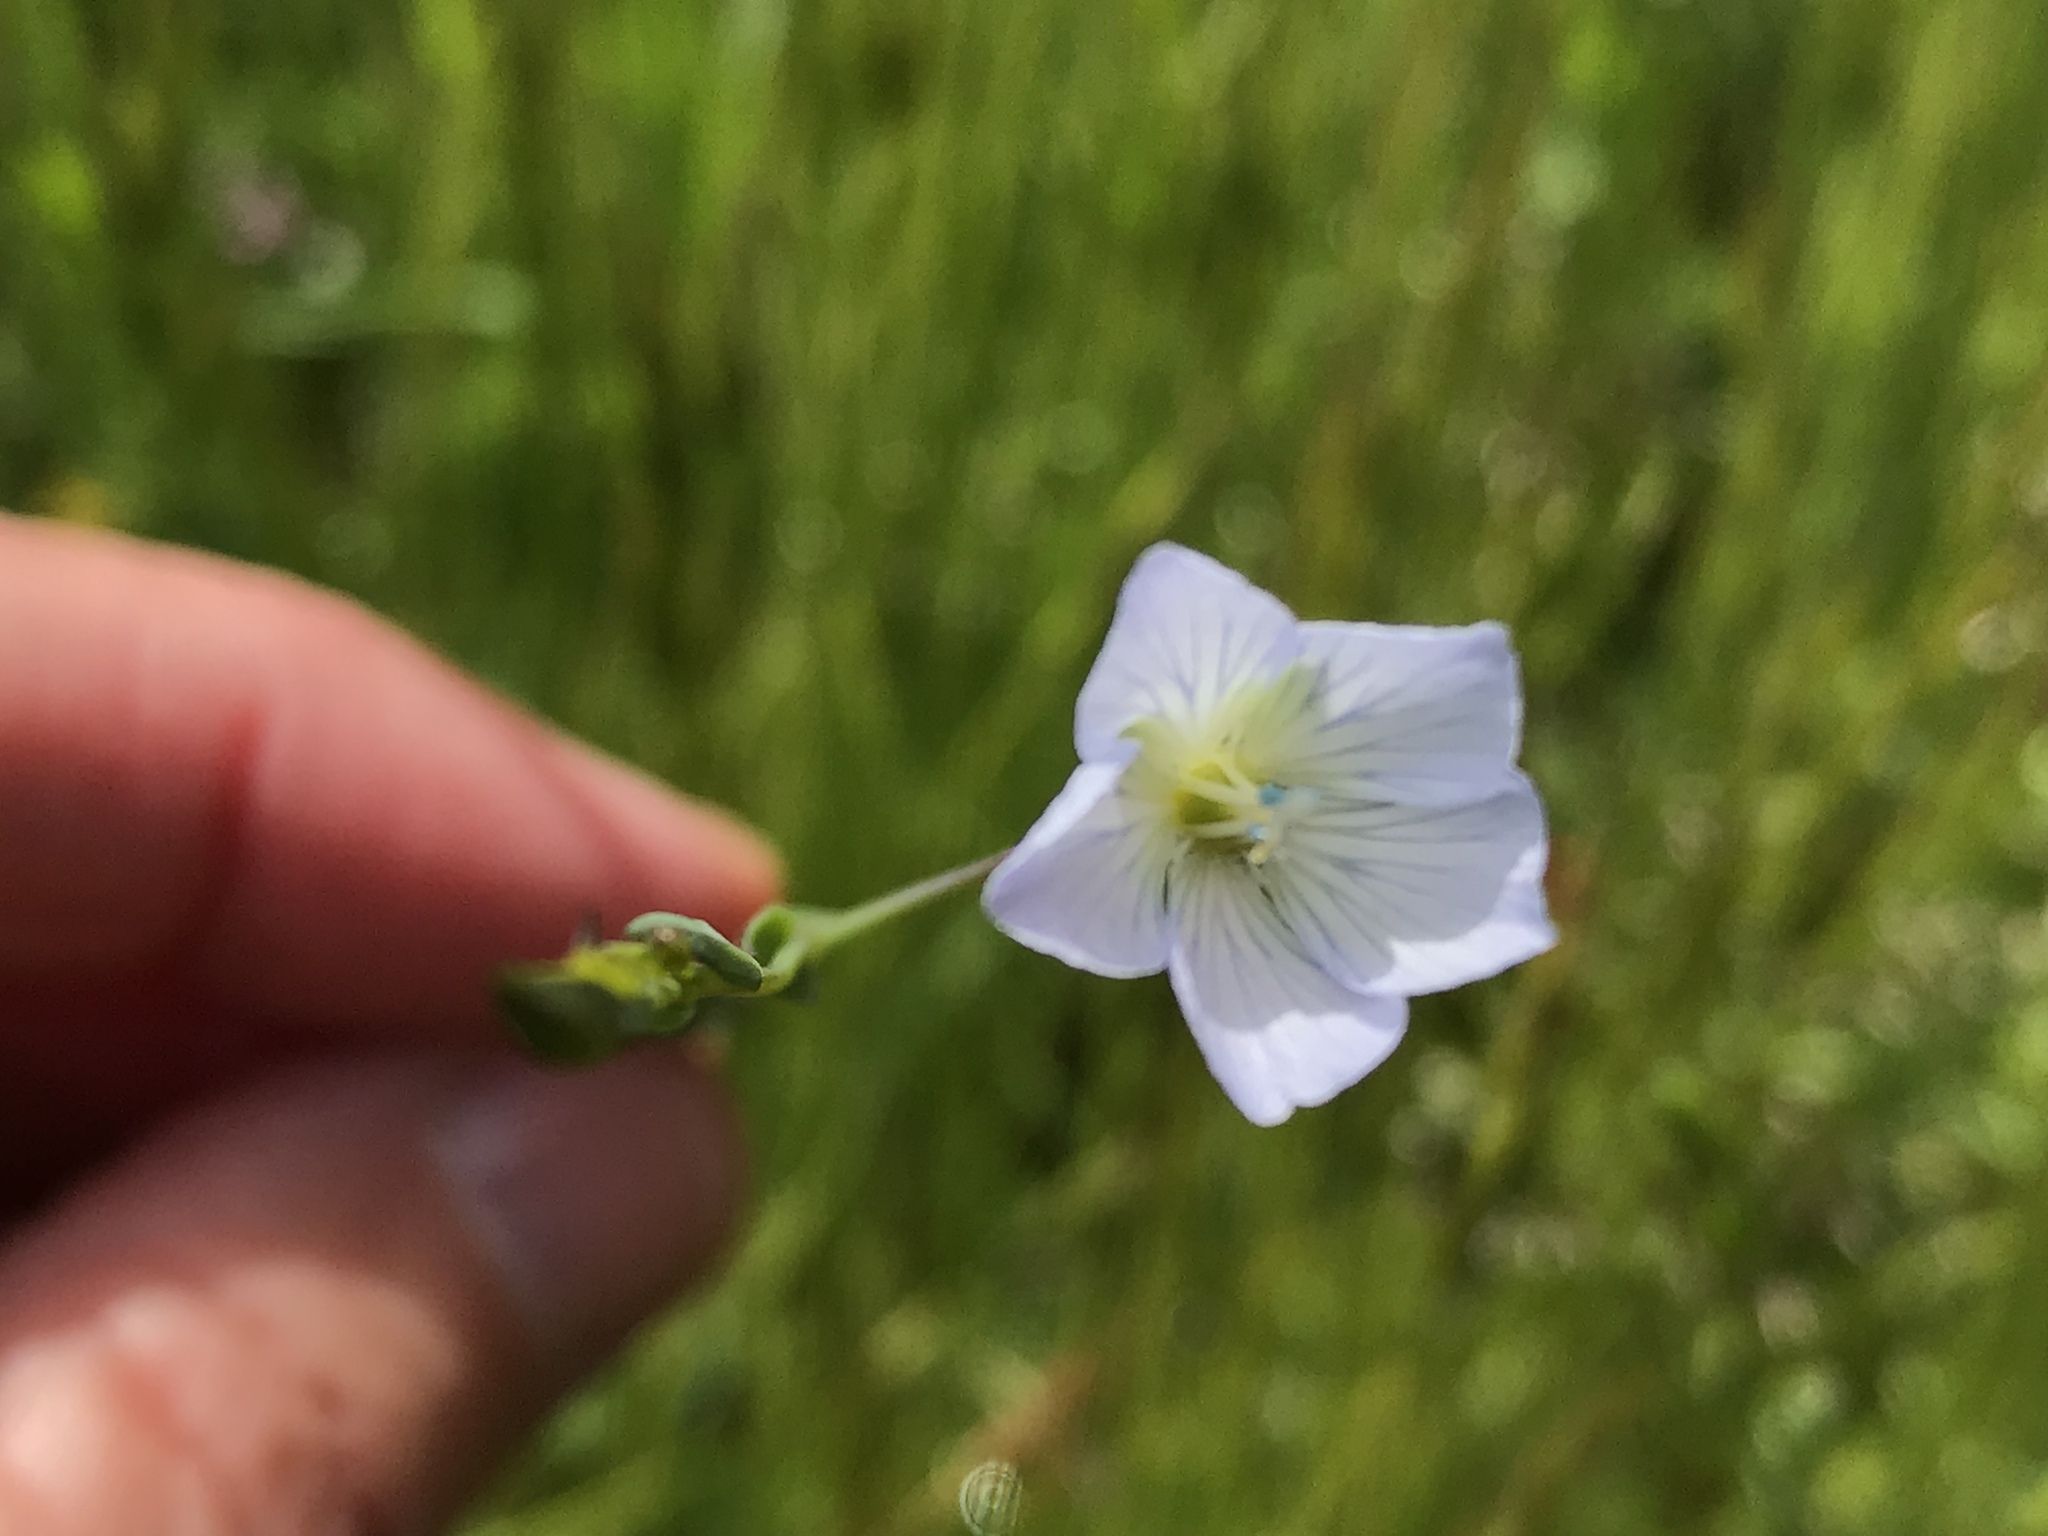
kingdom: Plantae
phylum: Tracheophyta
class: Magnoliopsida
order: Malpighiales
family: Linaceae
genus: Linum
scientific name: Linum bienne
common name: Pale flax
